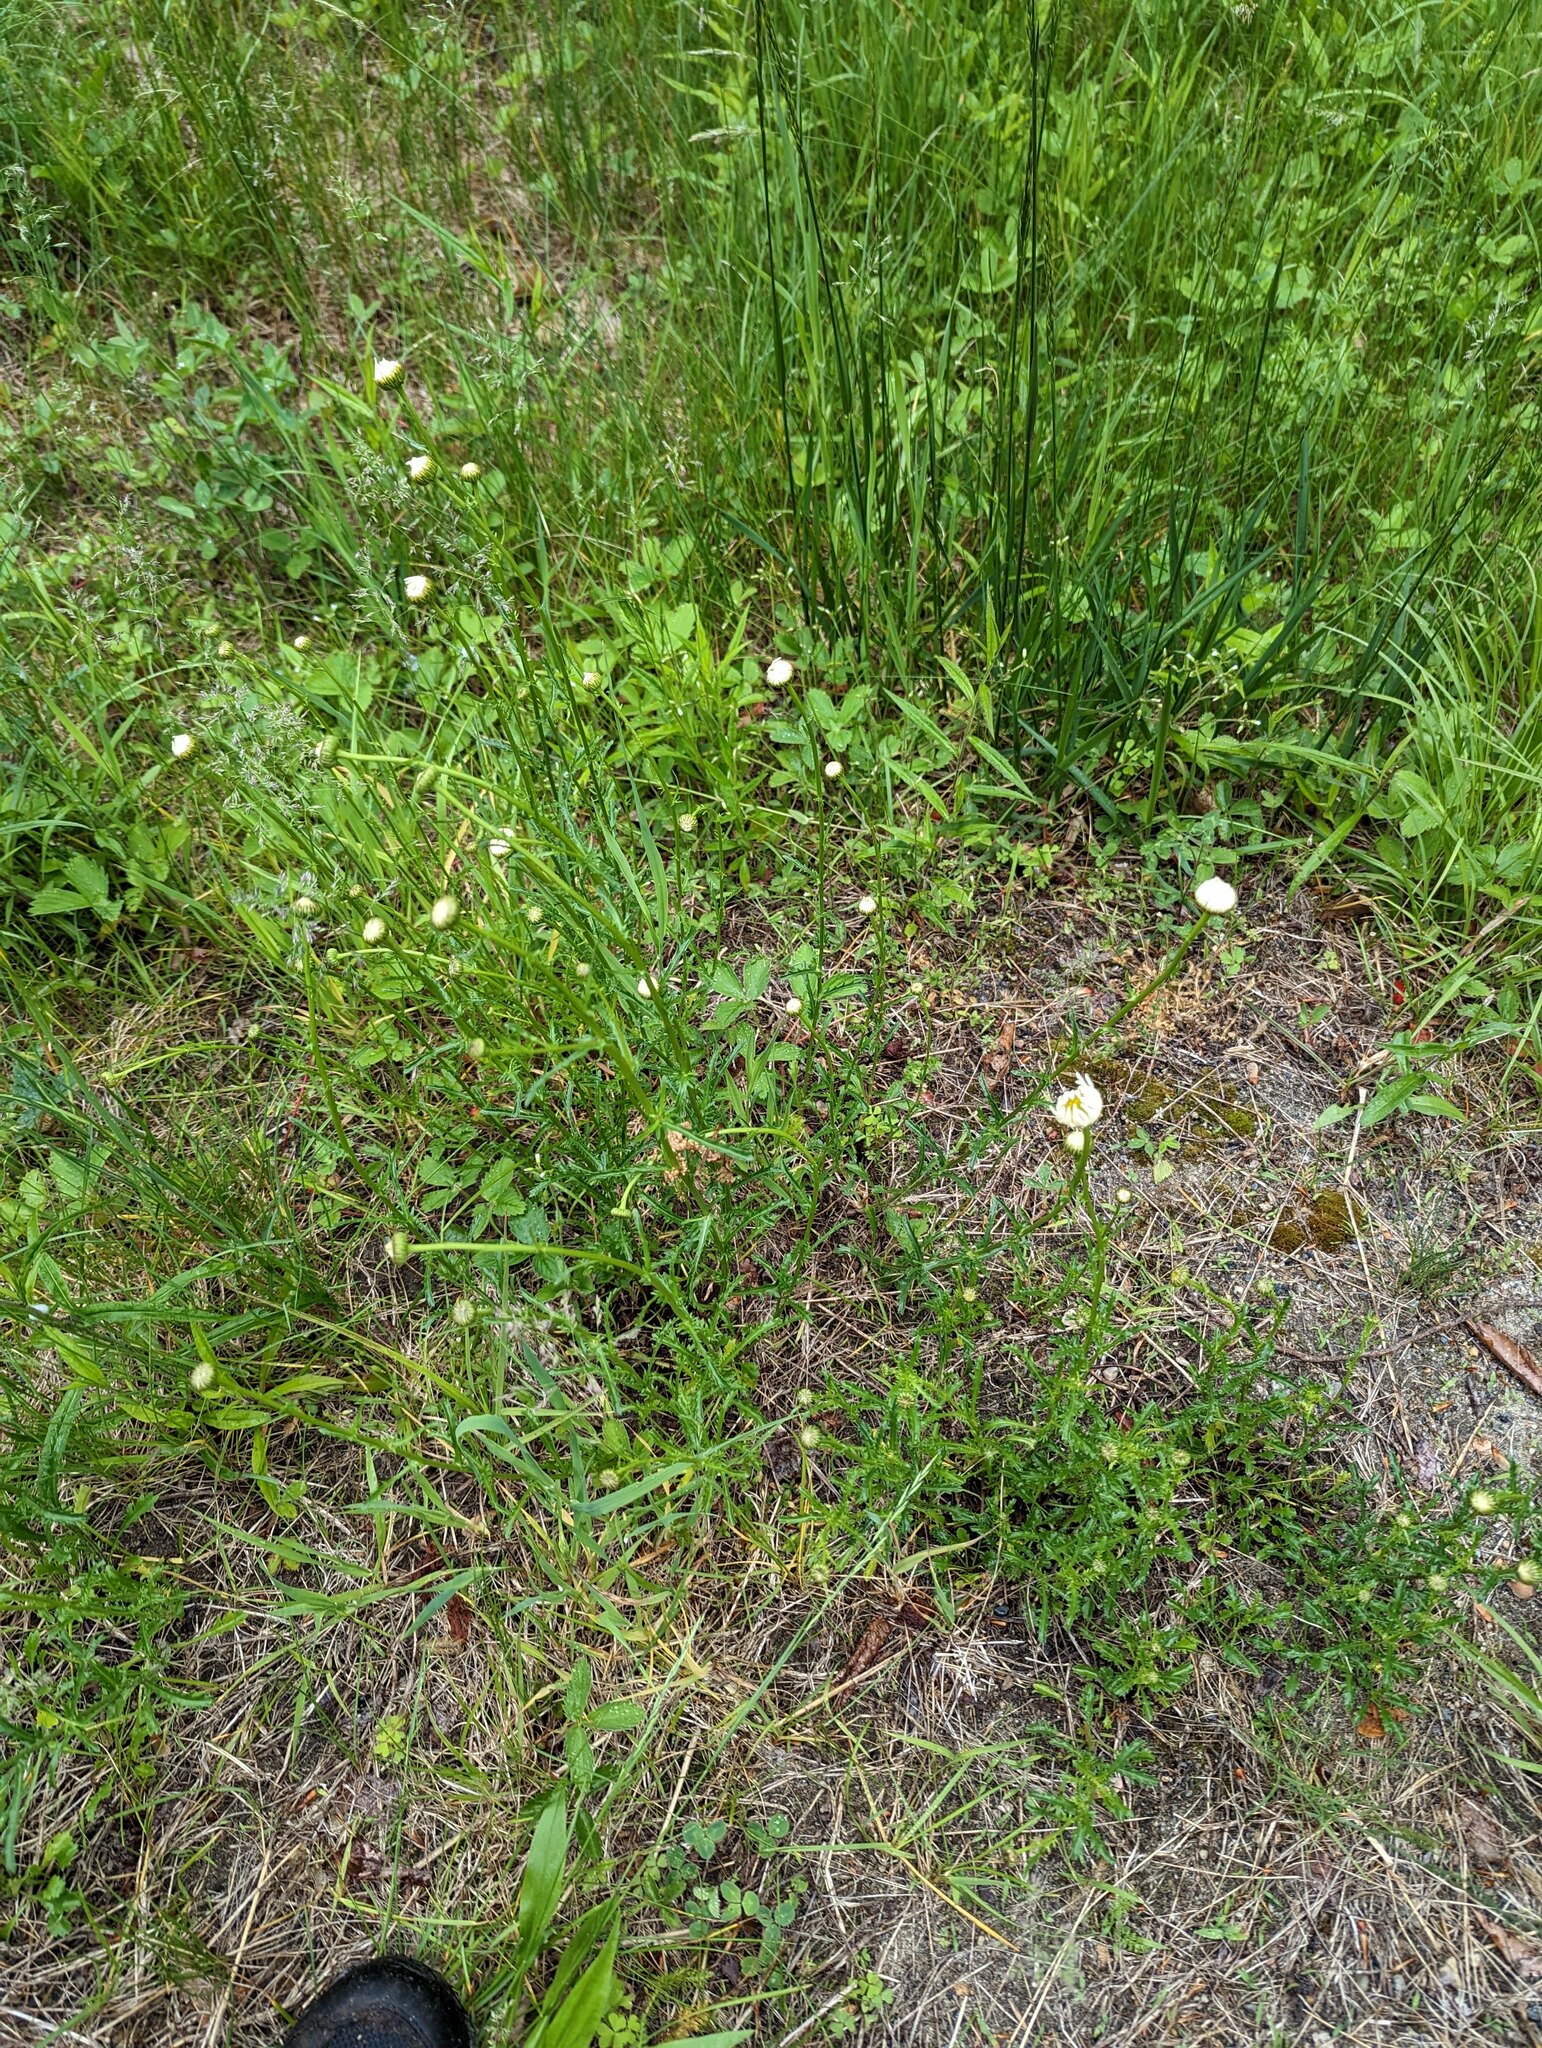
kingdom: Plantae
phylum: Tracheophyta
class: Magnoliopsida
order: Asterales
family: Asteraceae
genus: Leucanthemum
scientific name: Leucanthemum vulgare
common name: Oxeye daisy
